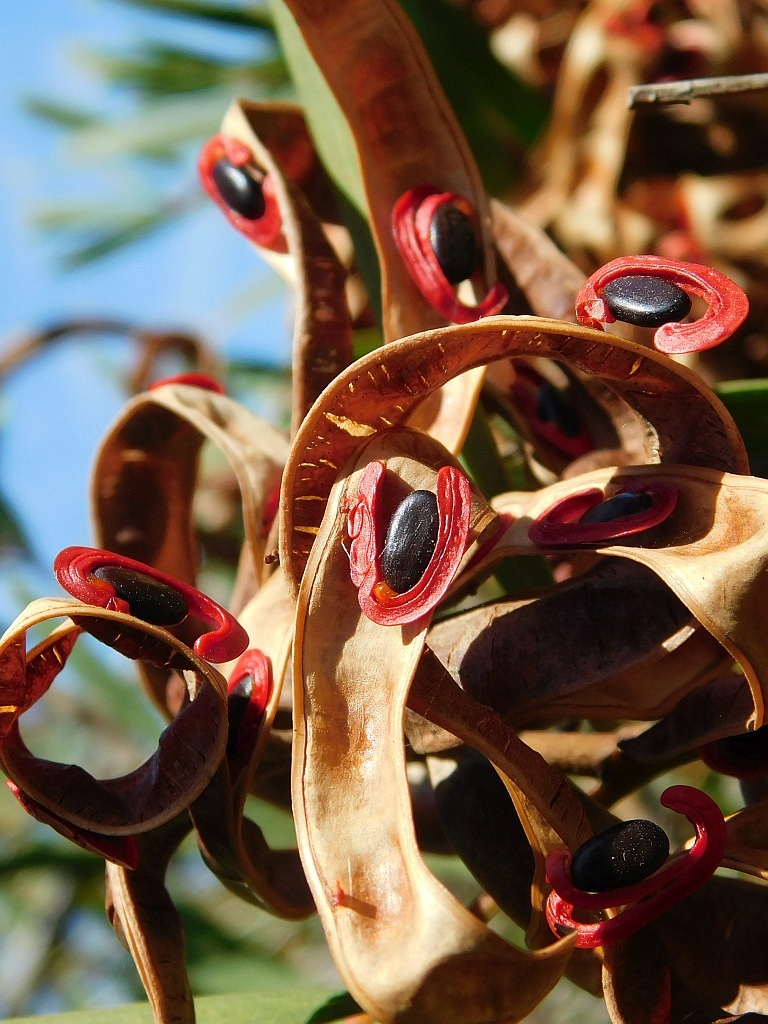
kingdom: Plantae
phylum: Tracheophyta
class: Magnoliopsida
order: Fabales
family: Fabaceae
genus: Acacia
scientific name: Acacia cyclops
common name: Coastal wattle
